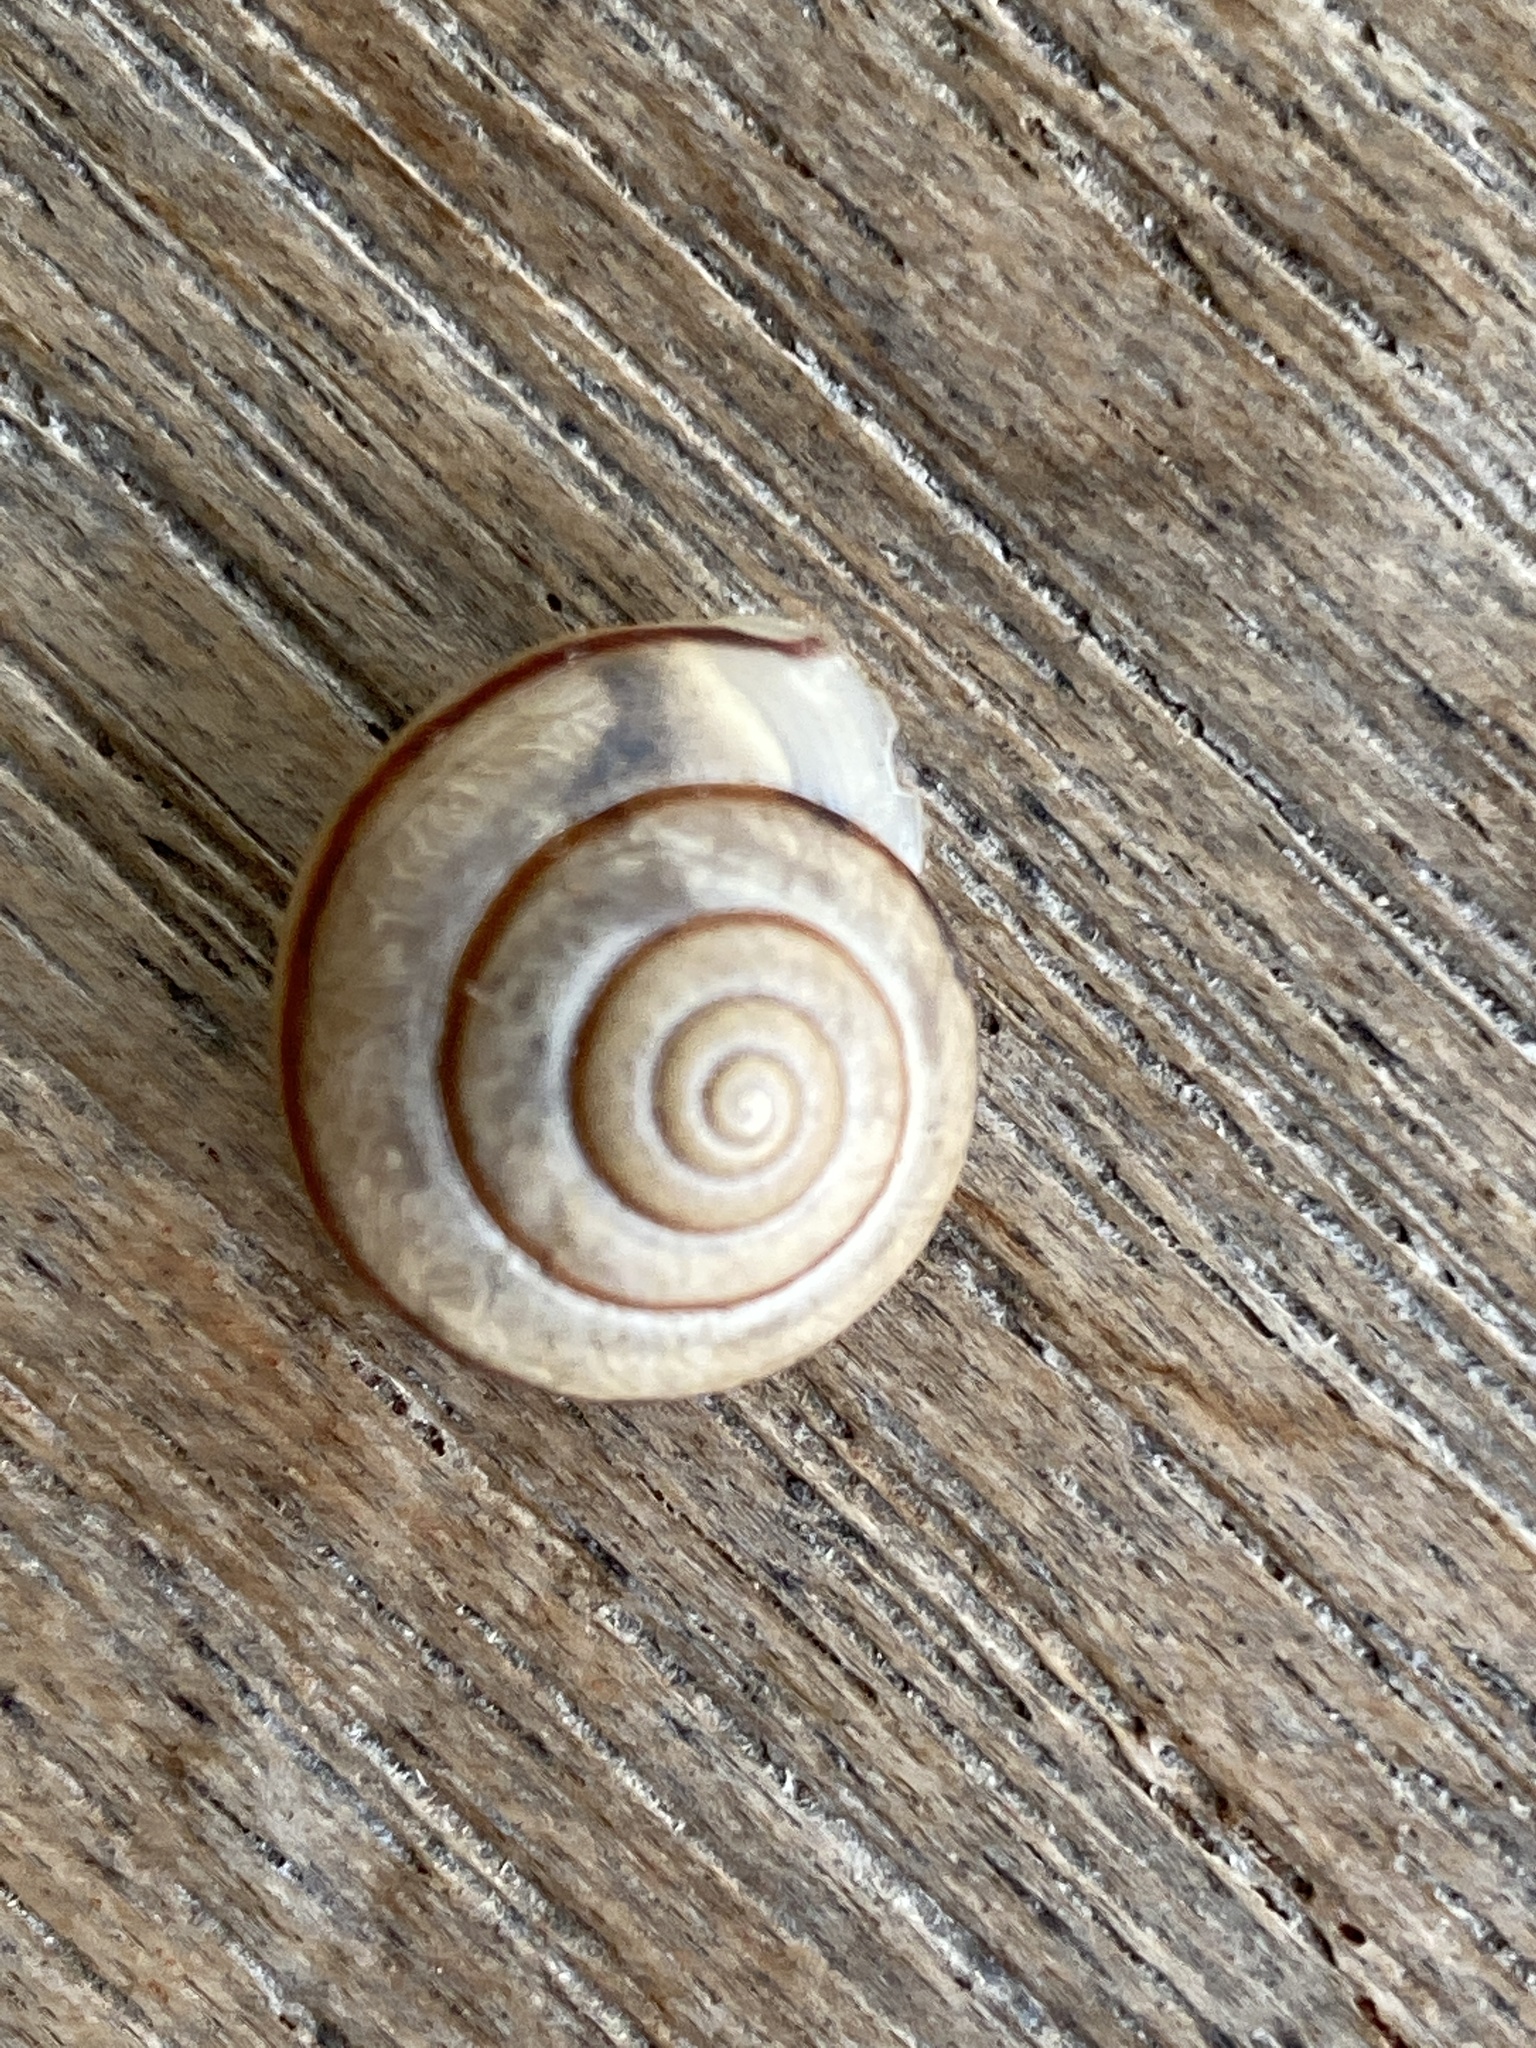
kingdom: Animalia
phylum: Mollusca
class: Gastropoda
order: Stylommatophora
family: Camaenidae
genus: Bradybaena
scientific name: Bradybaena similaris
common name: Asian trampsnail
